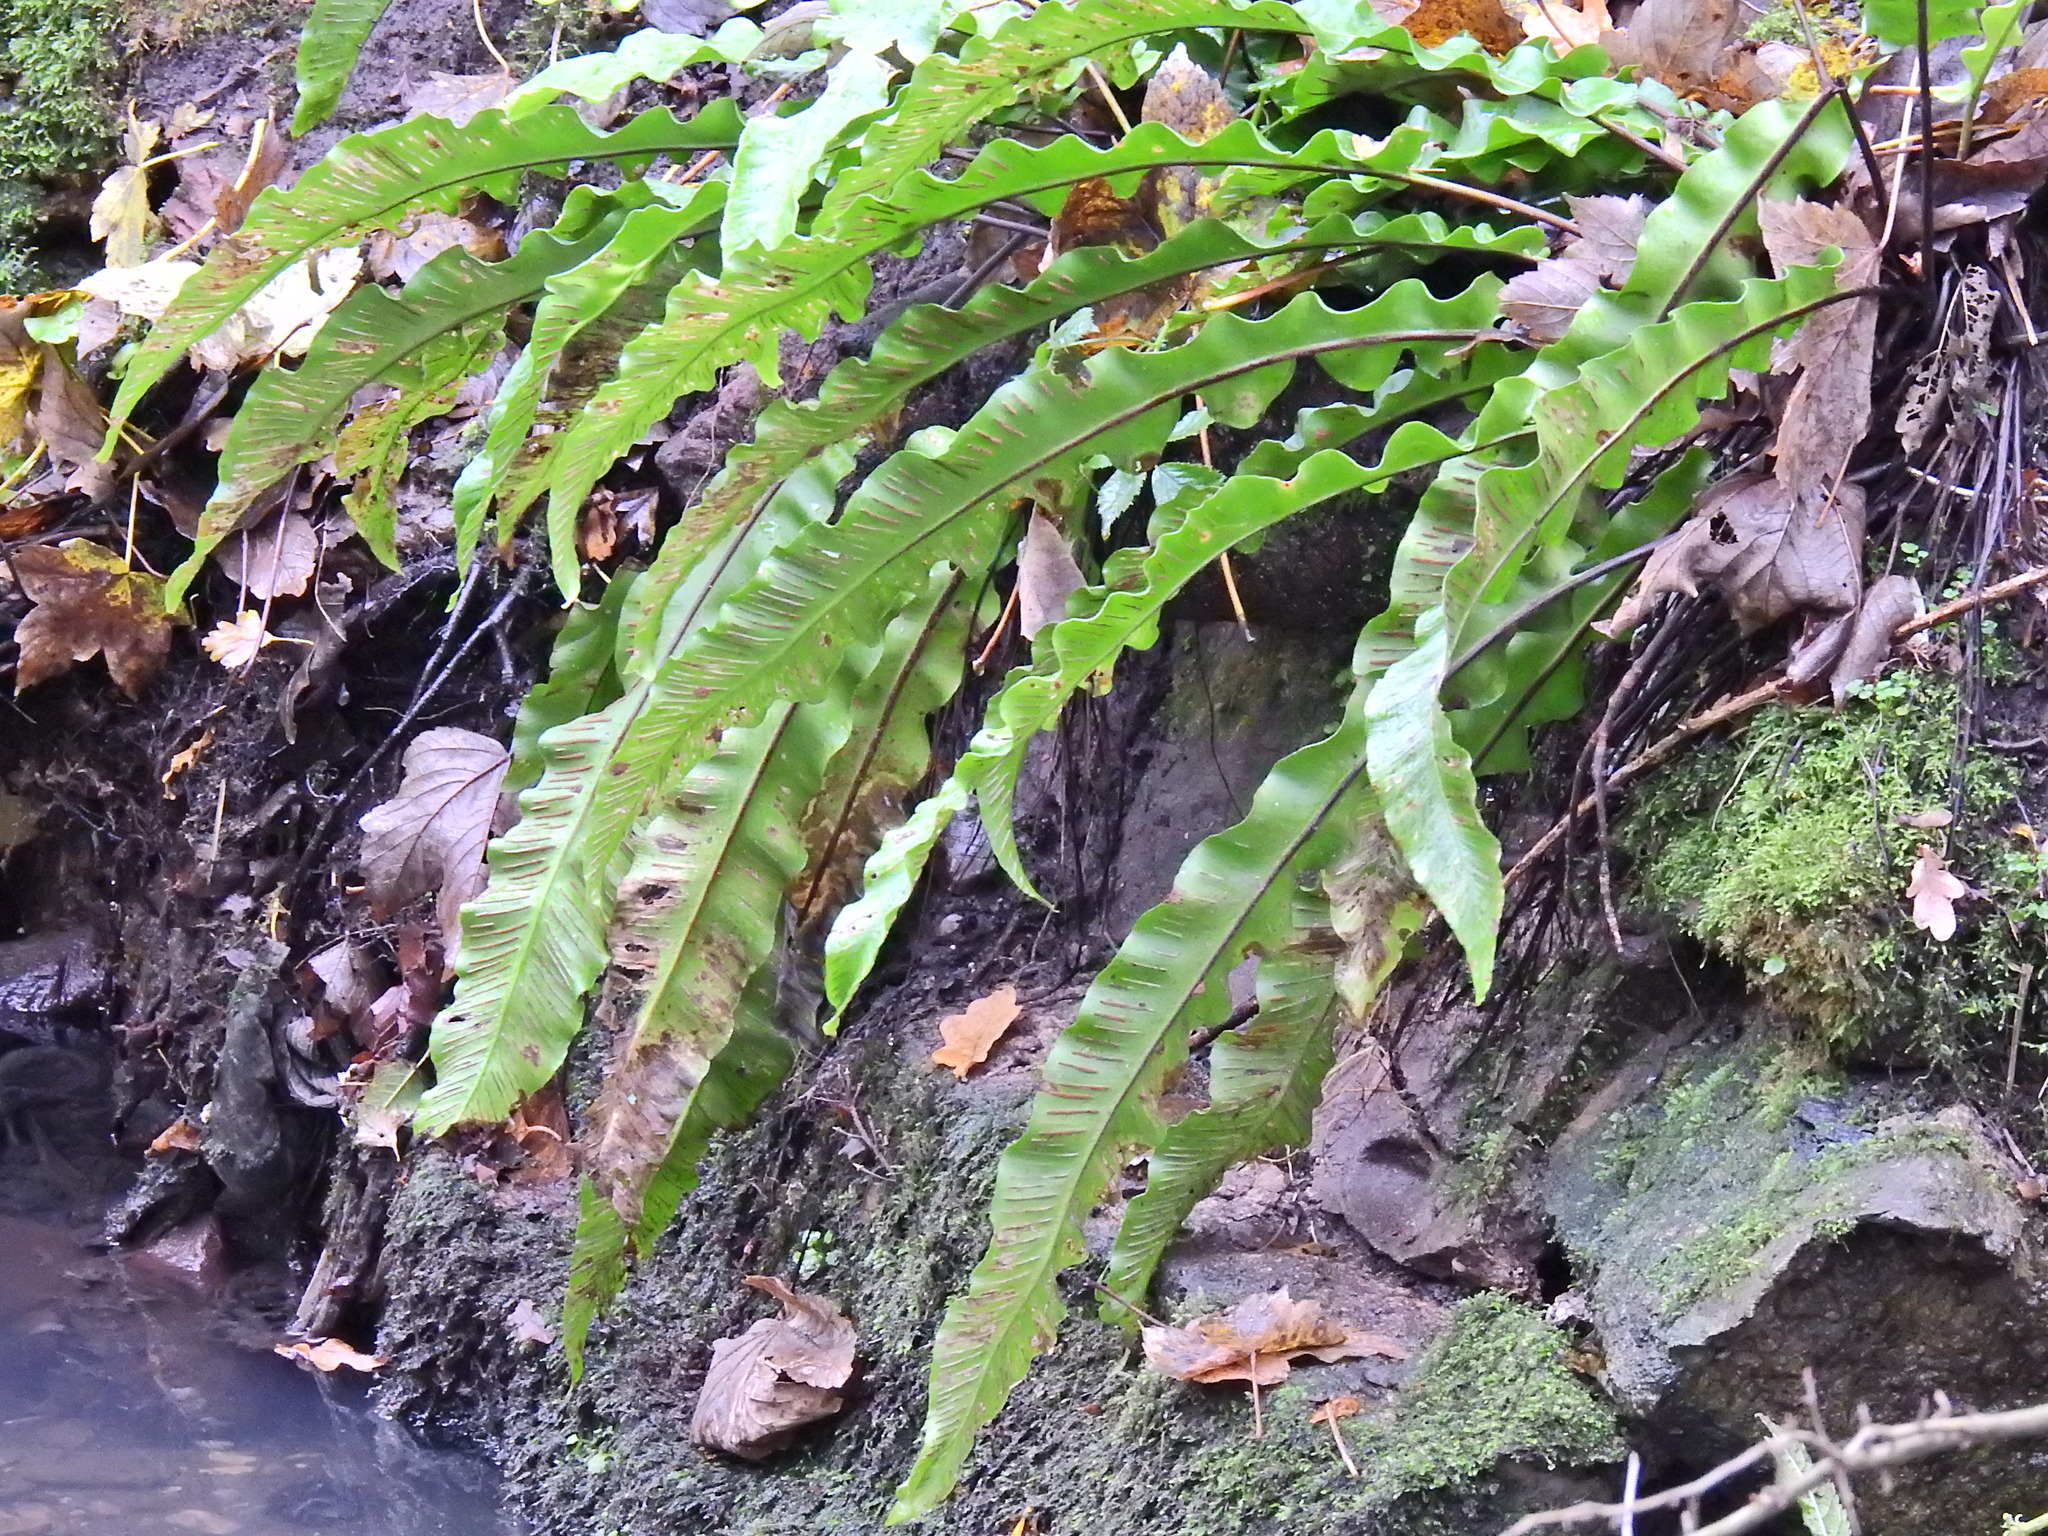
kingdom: Plantae
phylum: Tracheophyta
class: Polypodiopsida
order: Polypodiales
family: Aspleniaceae
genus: Asplenium
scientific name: Asplenium scolopendrium
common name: Hart's-tongue fern
